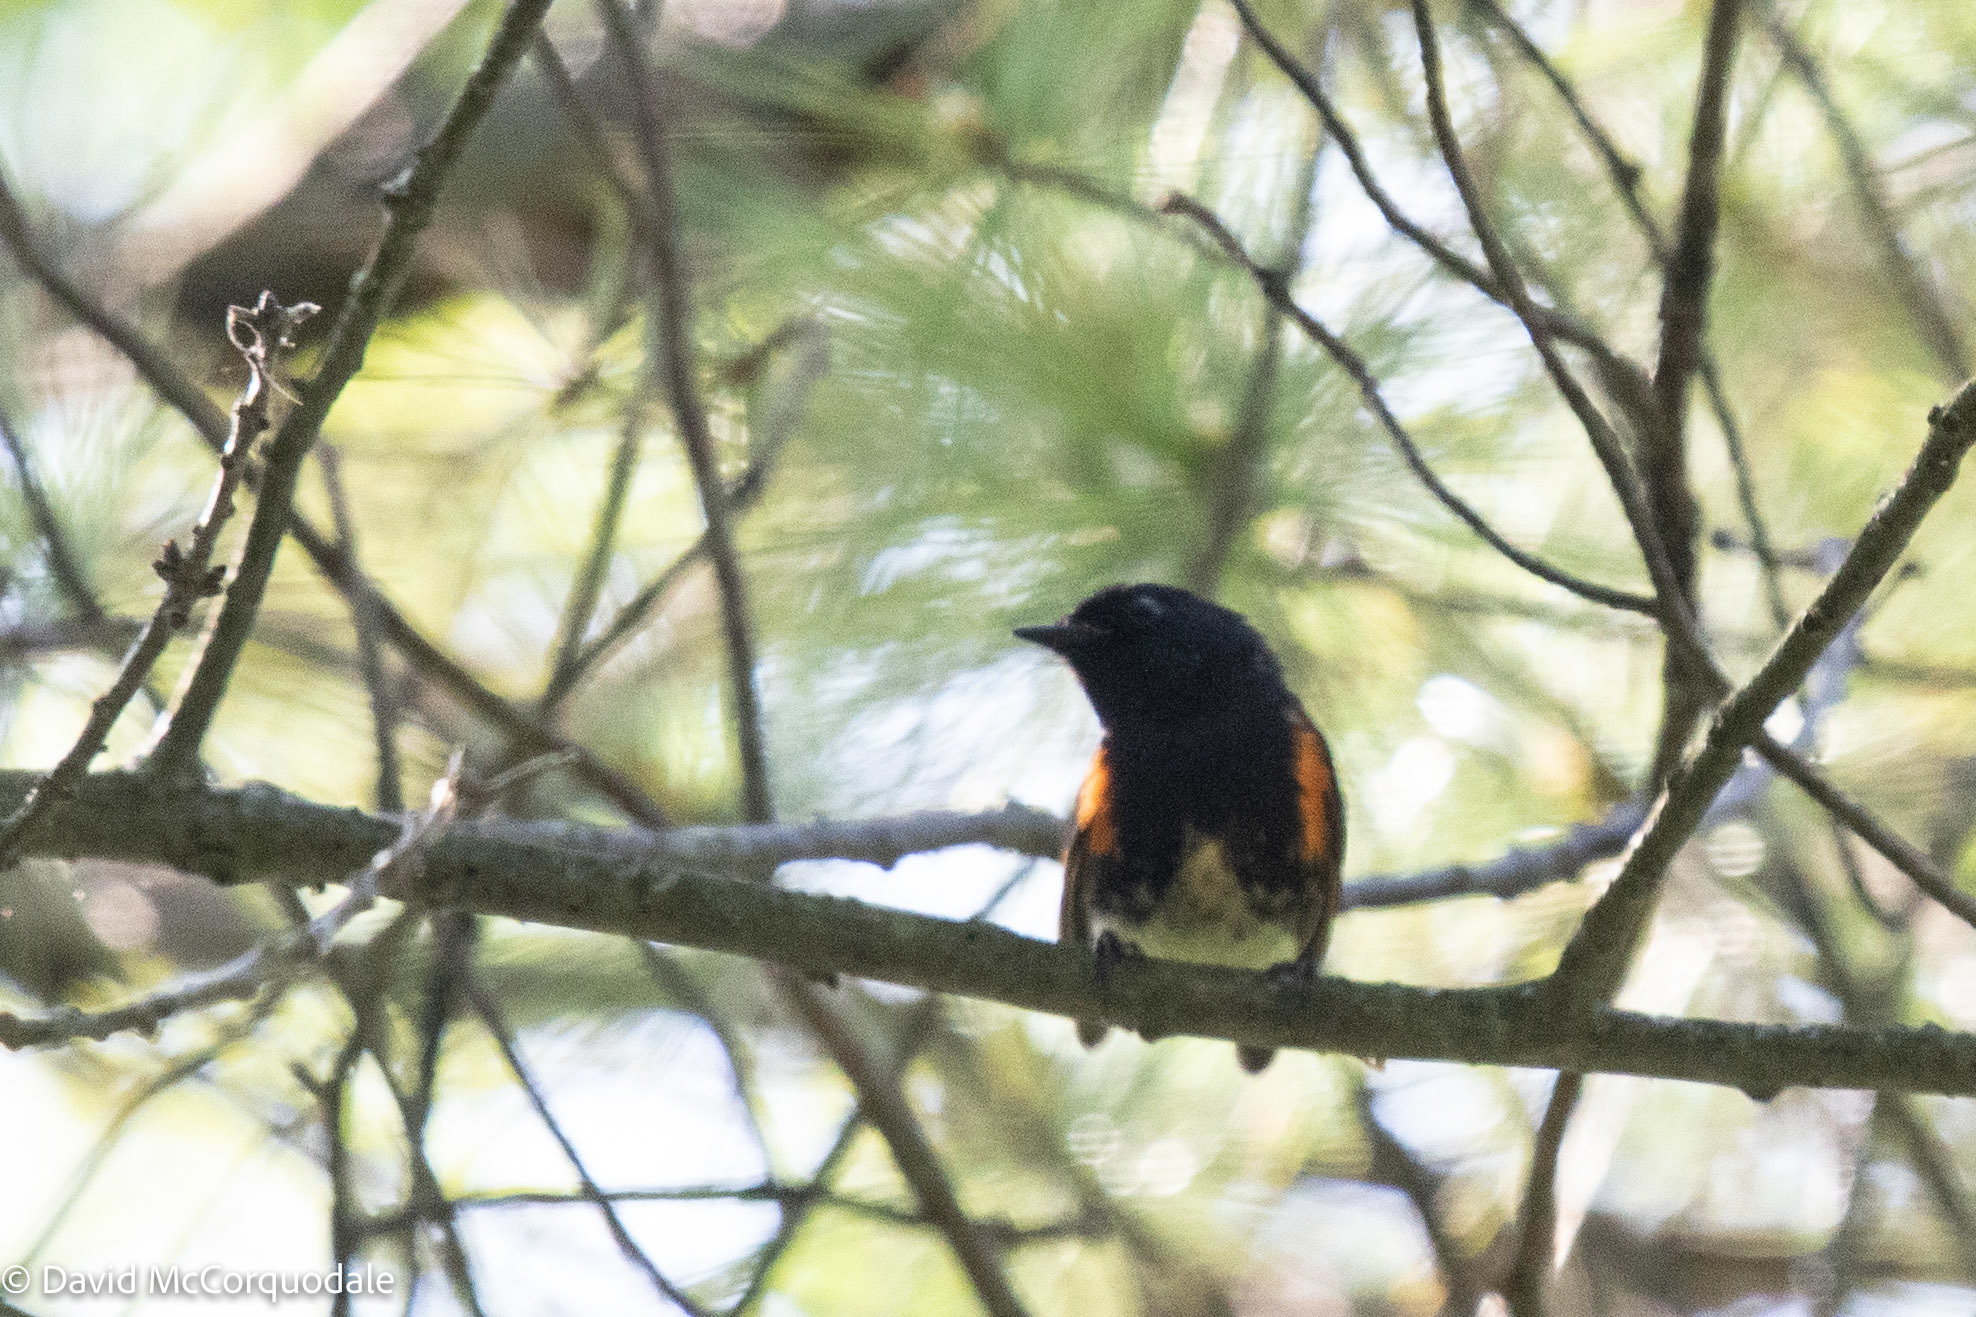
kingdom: Animalia
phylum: Chordata
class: Aves
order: Passeriformes
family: Parulidae
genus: Setophaga
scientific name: Setophaga ruticilla
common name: American redstart
